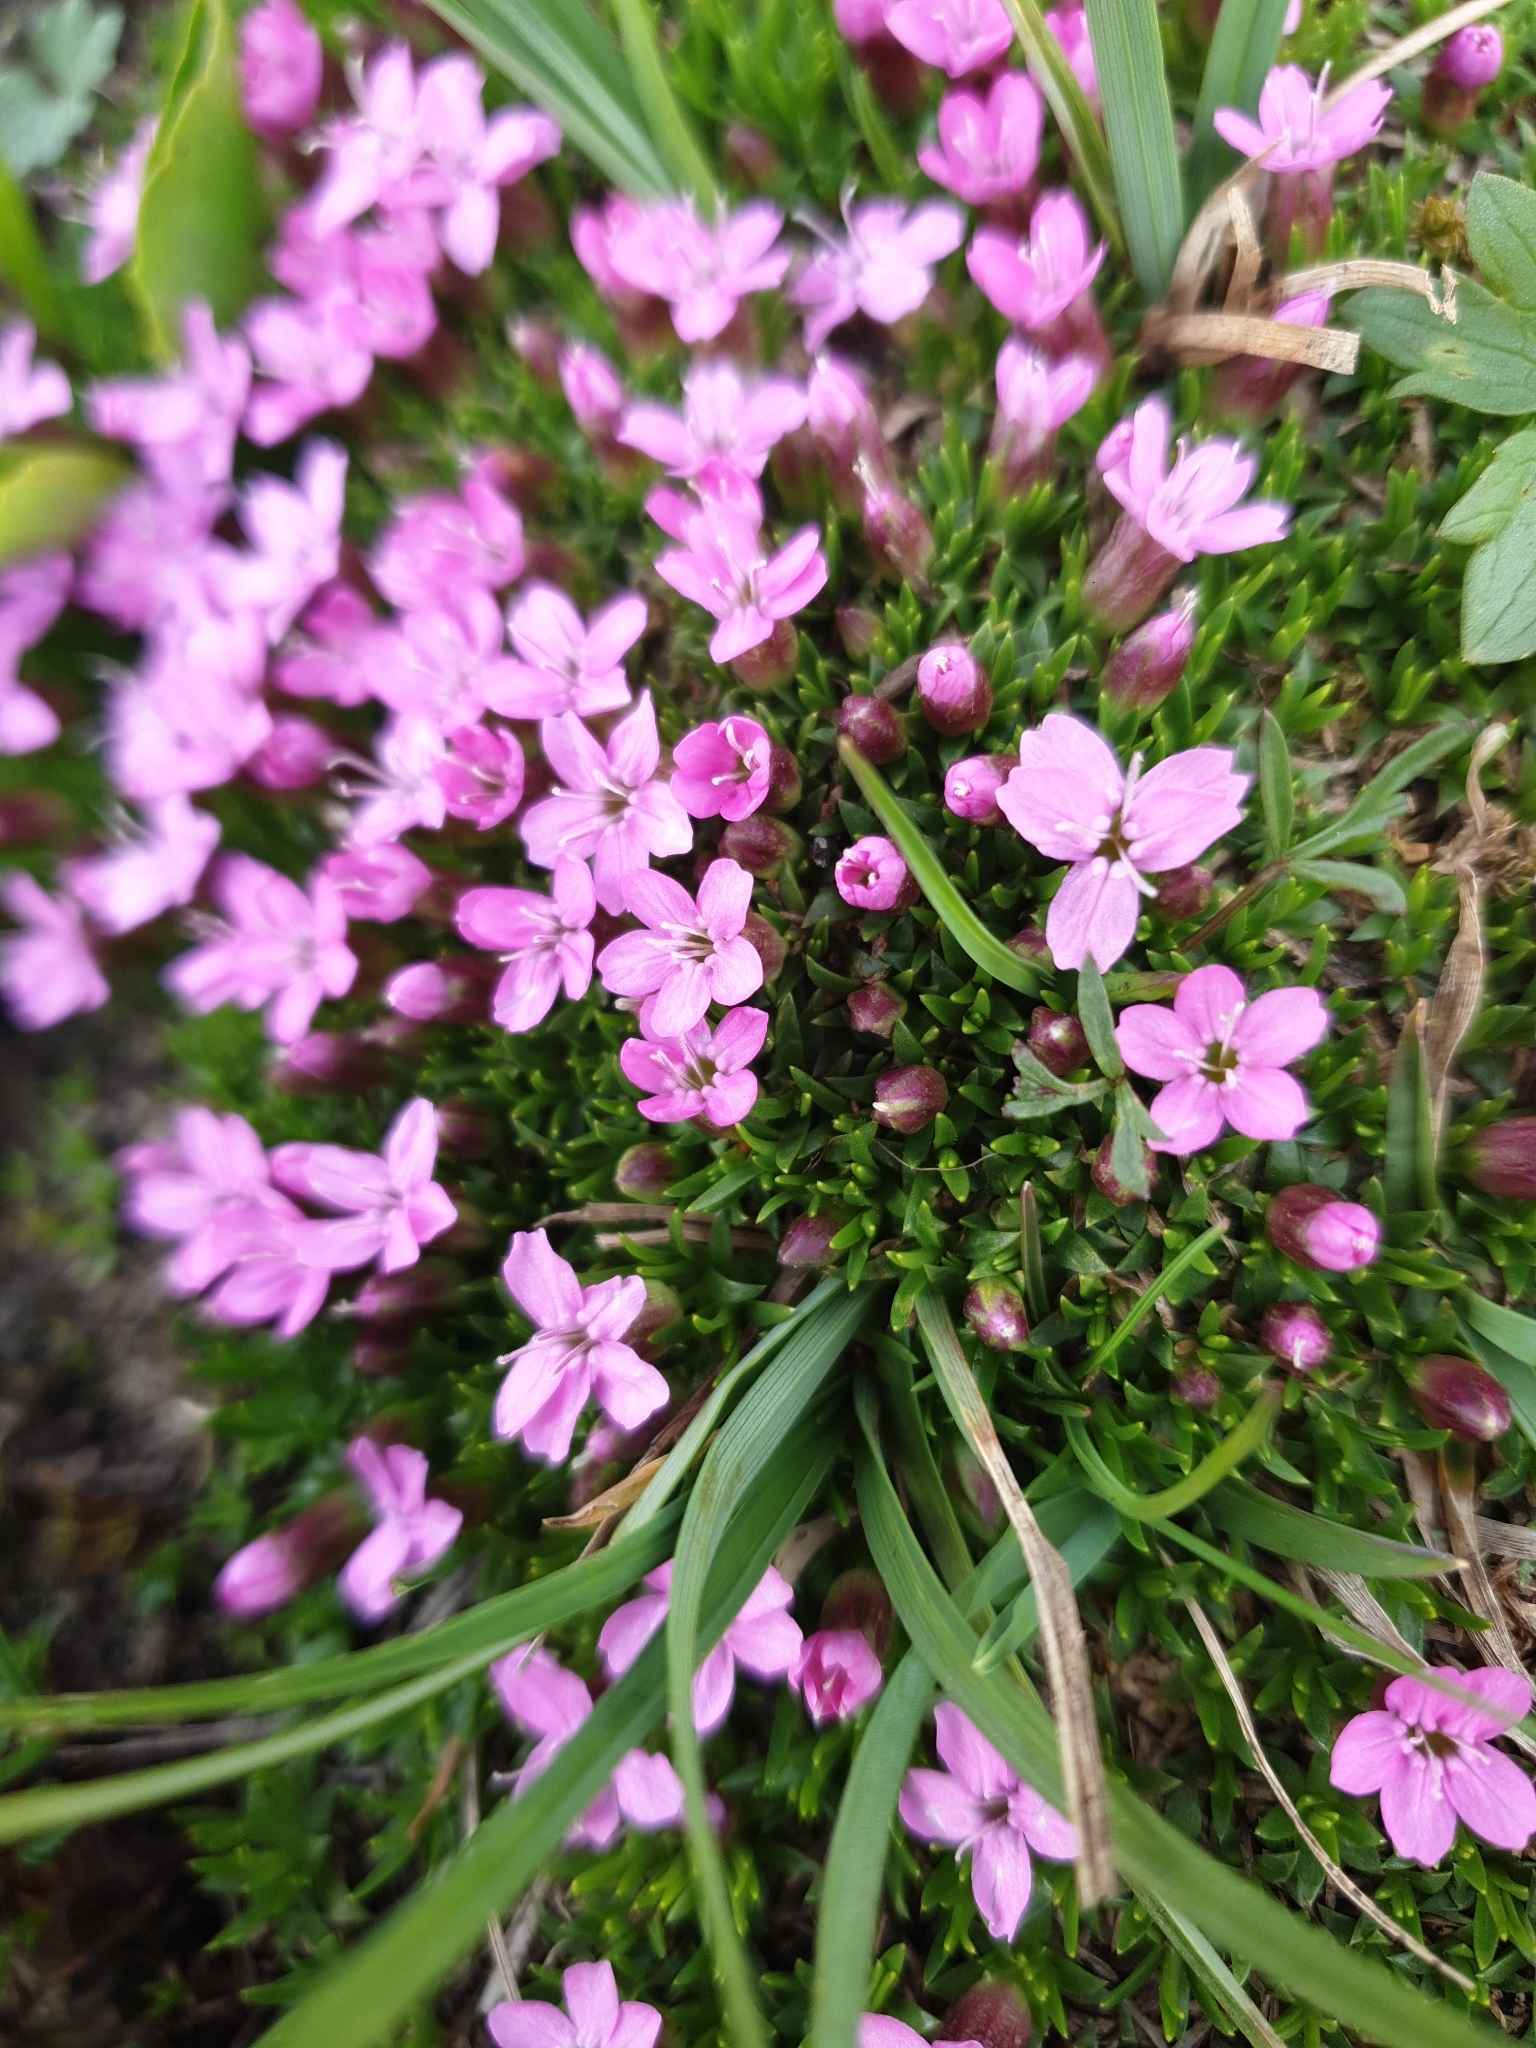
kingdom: Plantae
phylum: Tracheophyta
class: Magnoliopsida
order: Caryophyllales
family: Caryophyllaceae
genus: Silene
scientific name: Silene acaulis
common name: Moss campion
